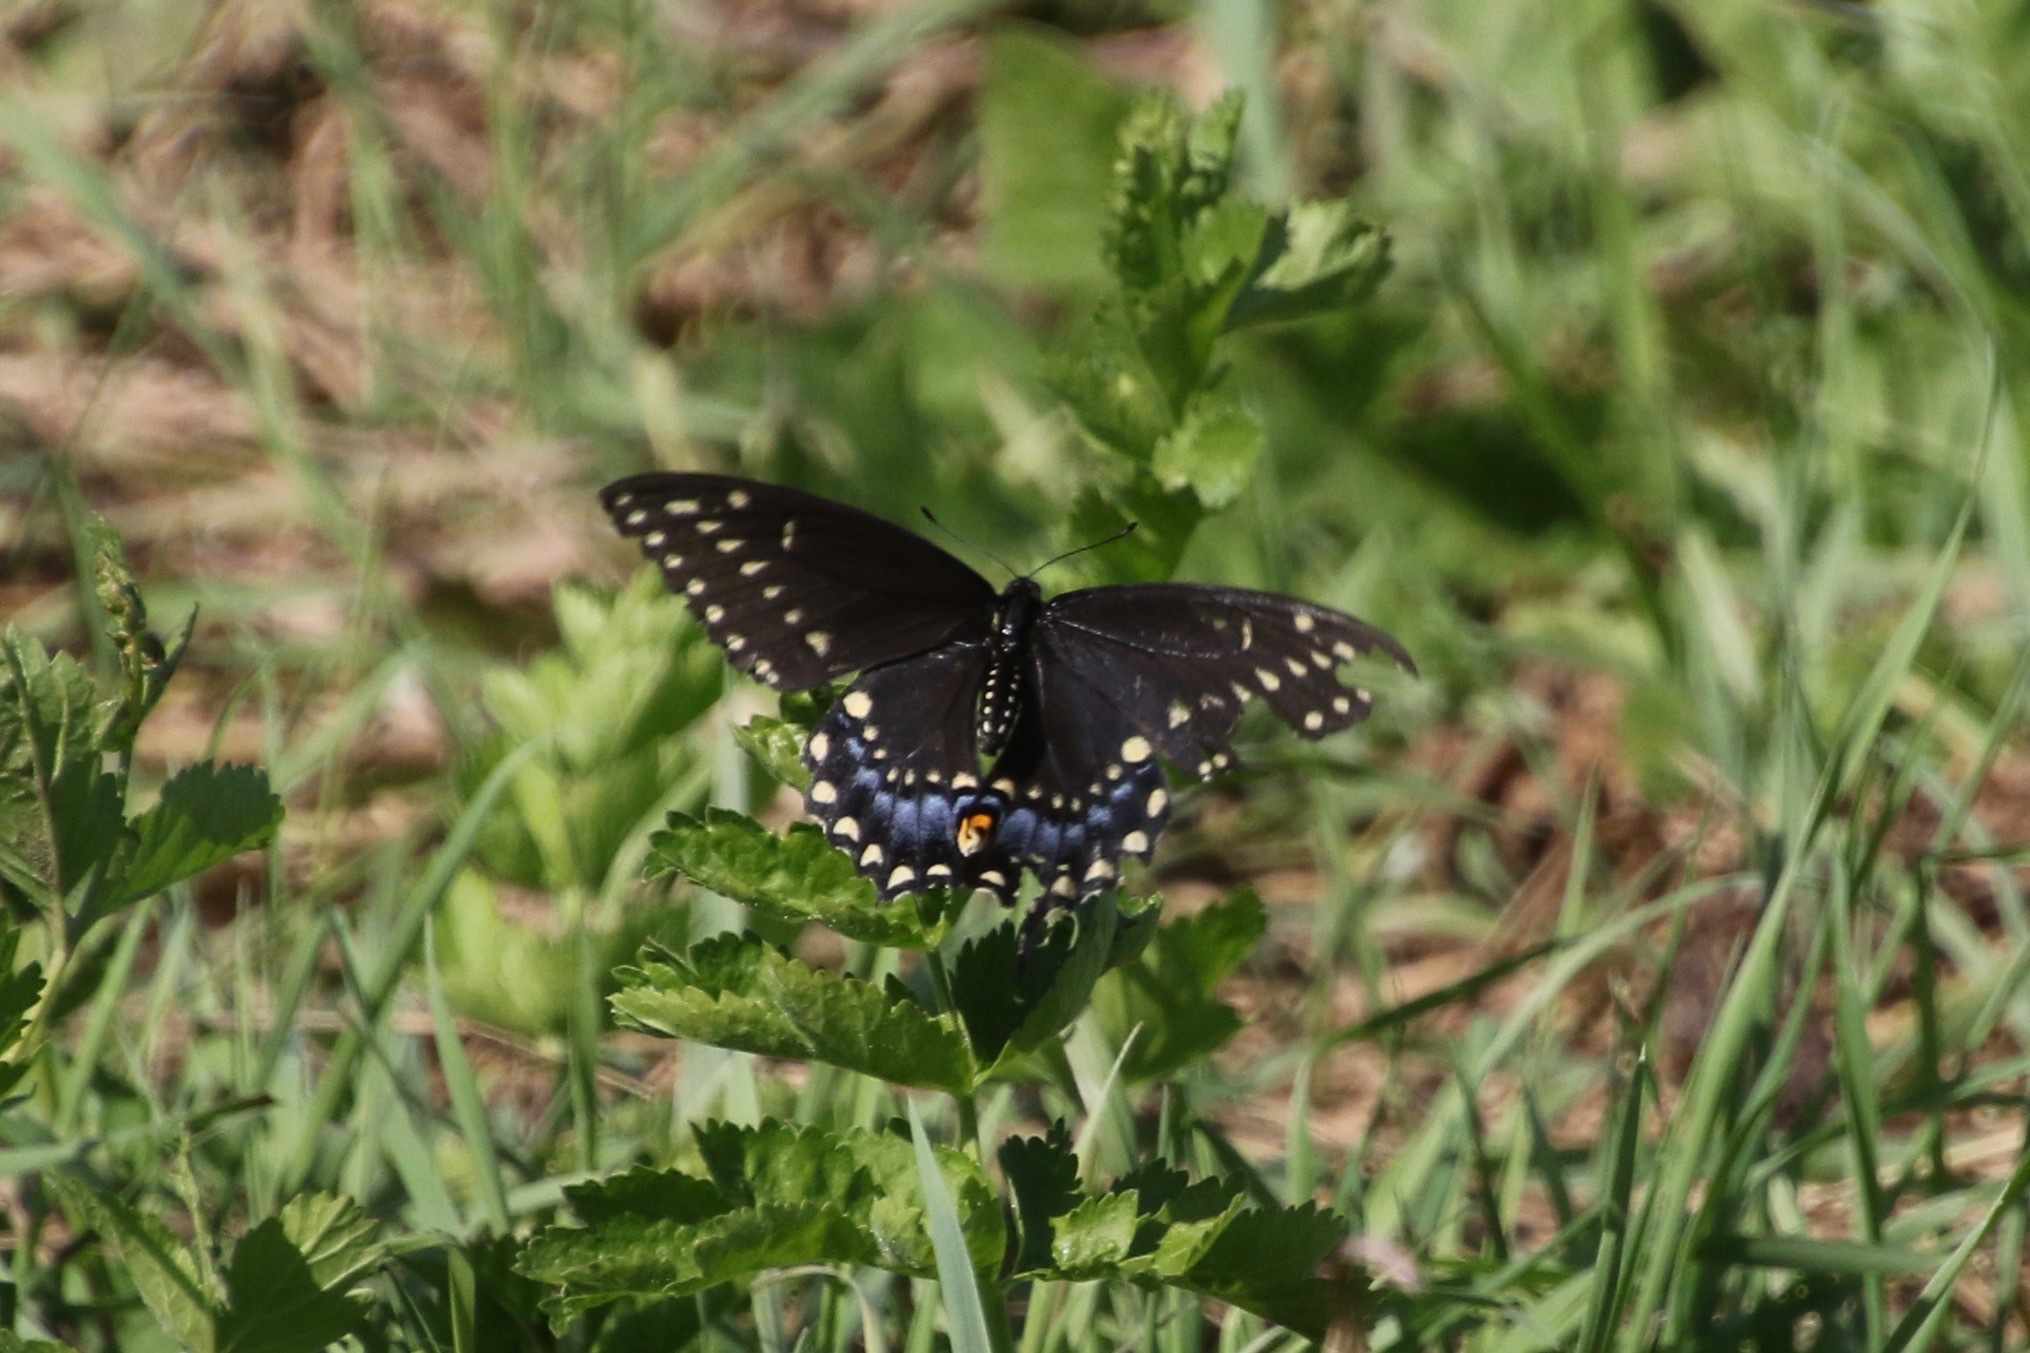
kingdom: Animalia
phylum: Arthropoda
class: Insecta
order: Lepidoptera
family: Papilionidae
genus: Papilio
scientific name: Papilio polyxenes
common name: Black swallowtail
